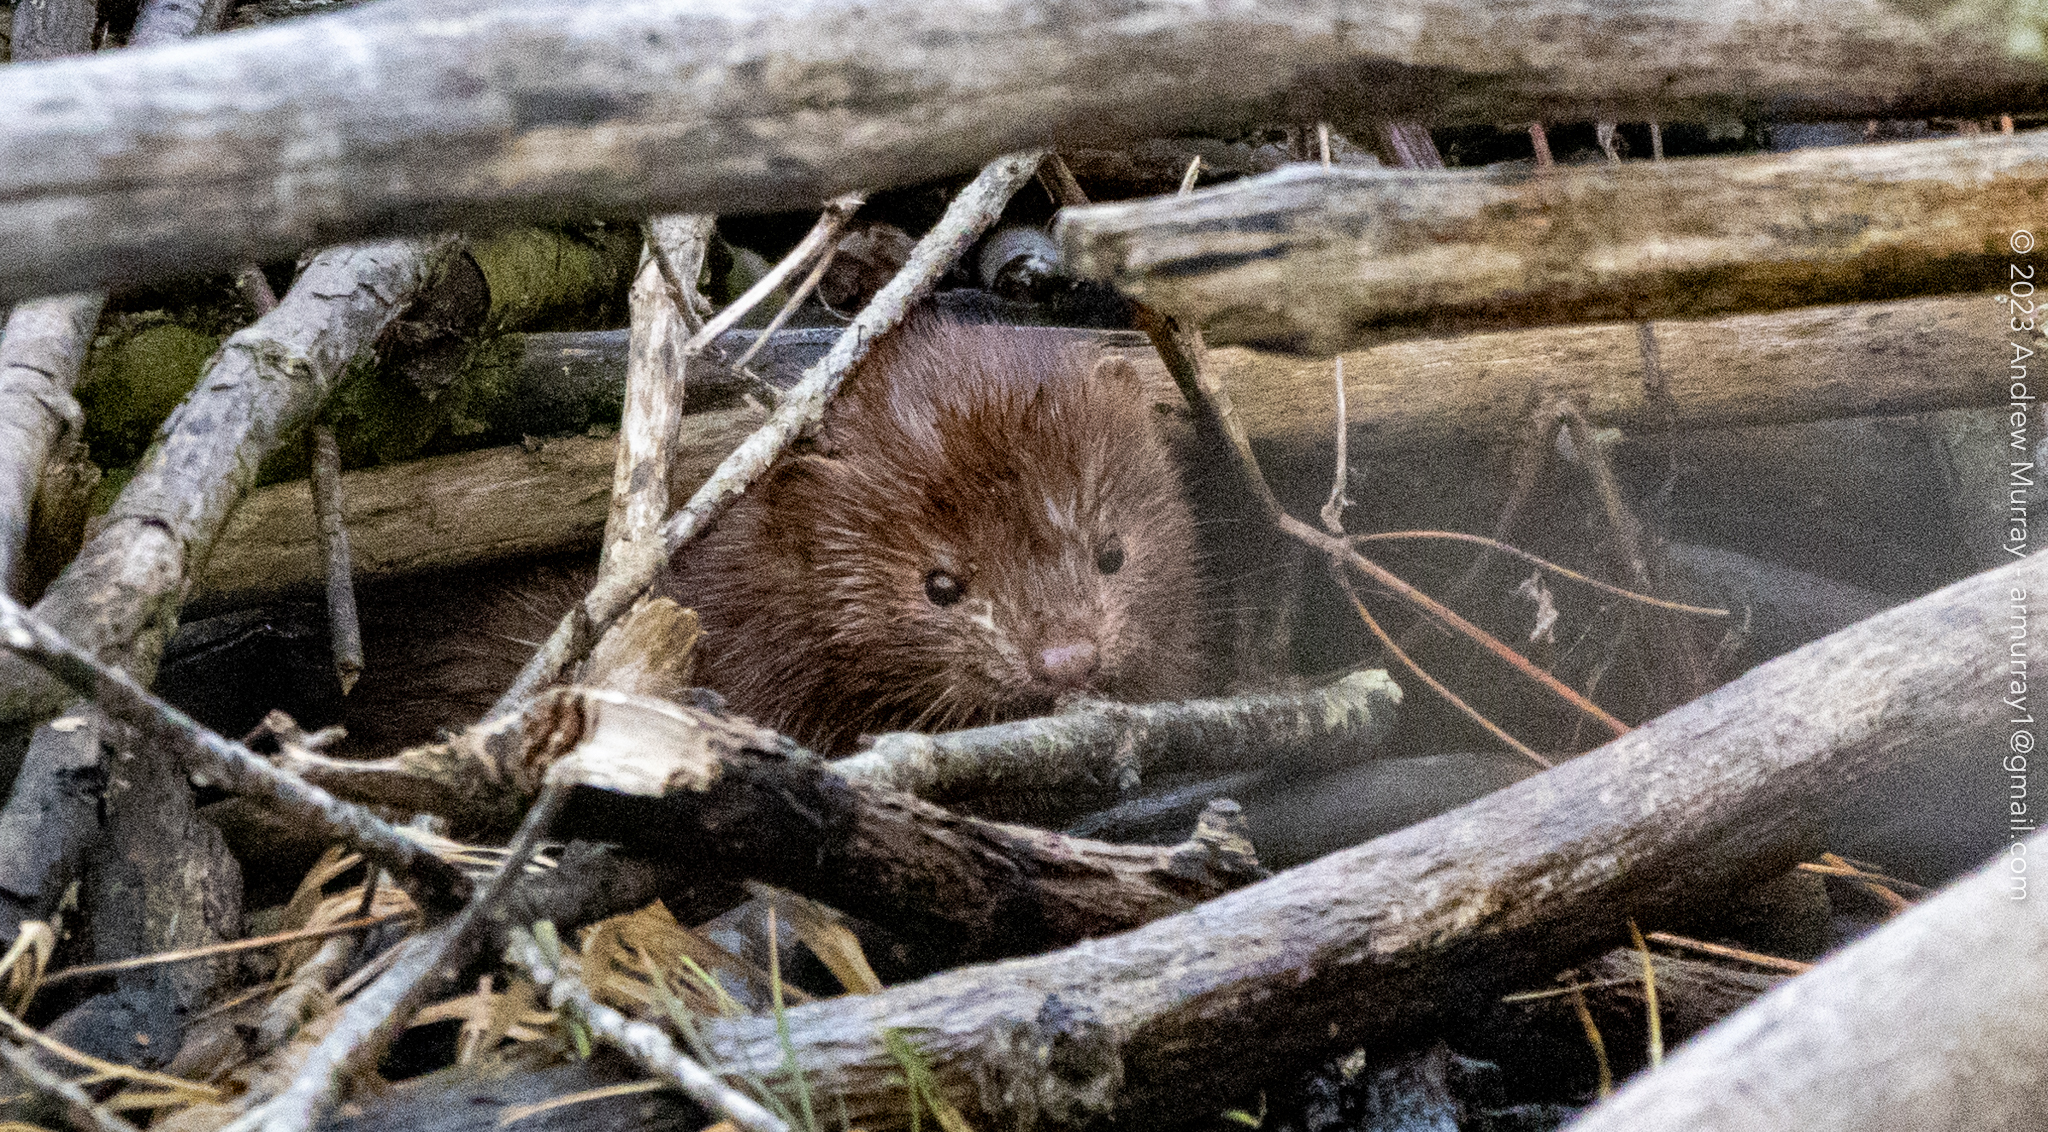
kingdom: Animalia
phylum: Chordata
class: Mammalia
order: Carnivora
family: Mustelidae
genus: Mustela
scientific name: Mustela
